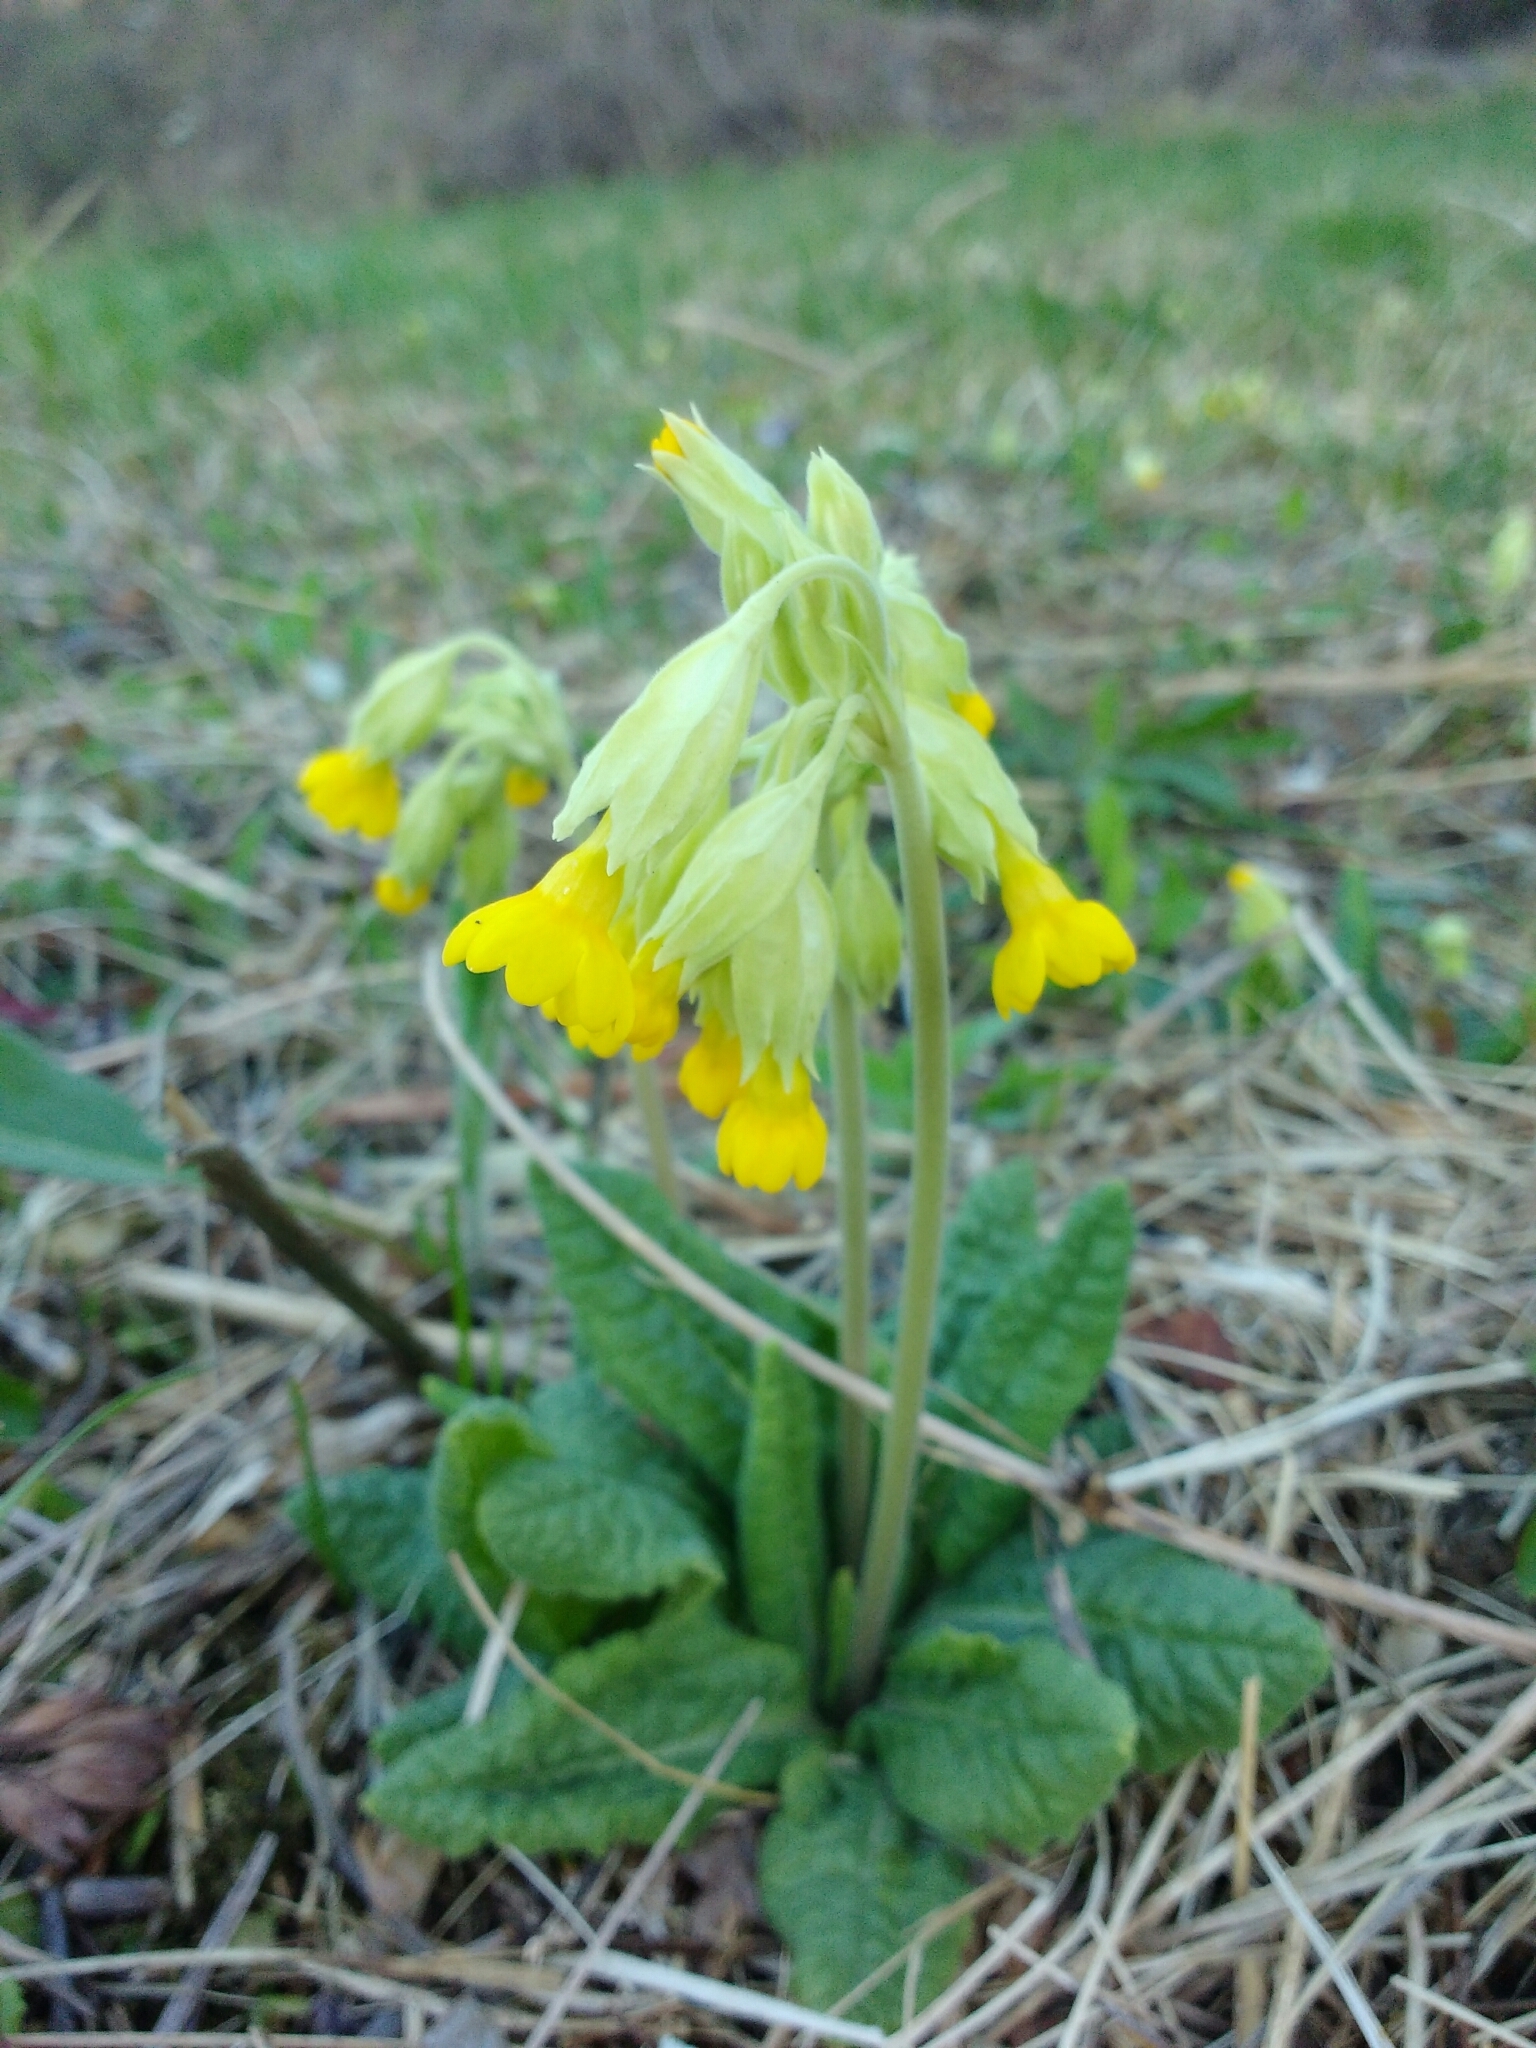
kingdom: Plantae
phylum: Tracheophyta
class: Magnoliopsida
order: Ericales
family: Primulaceae
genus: Primula
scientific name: Primula veris
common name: Cowslip
